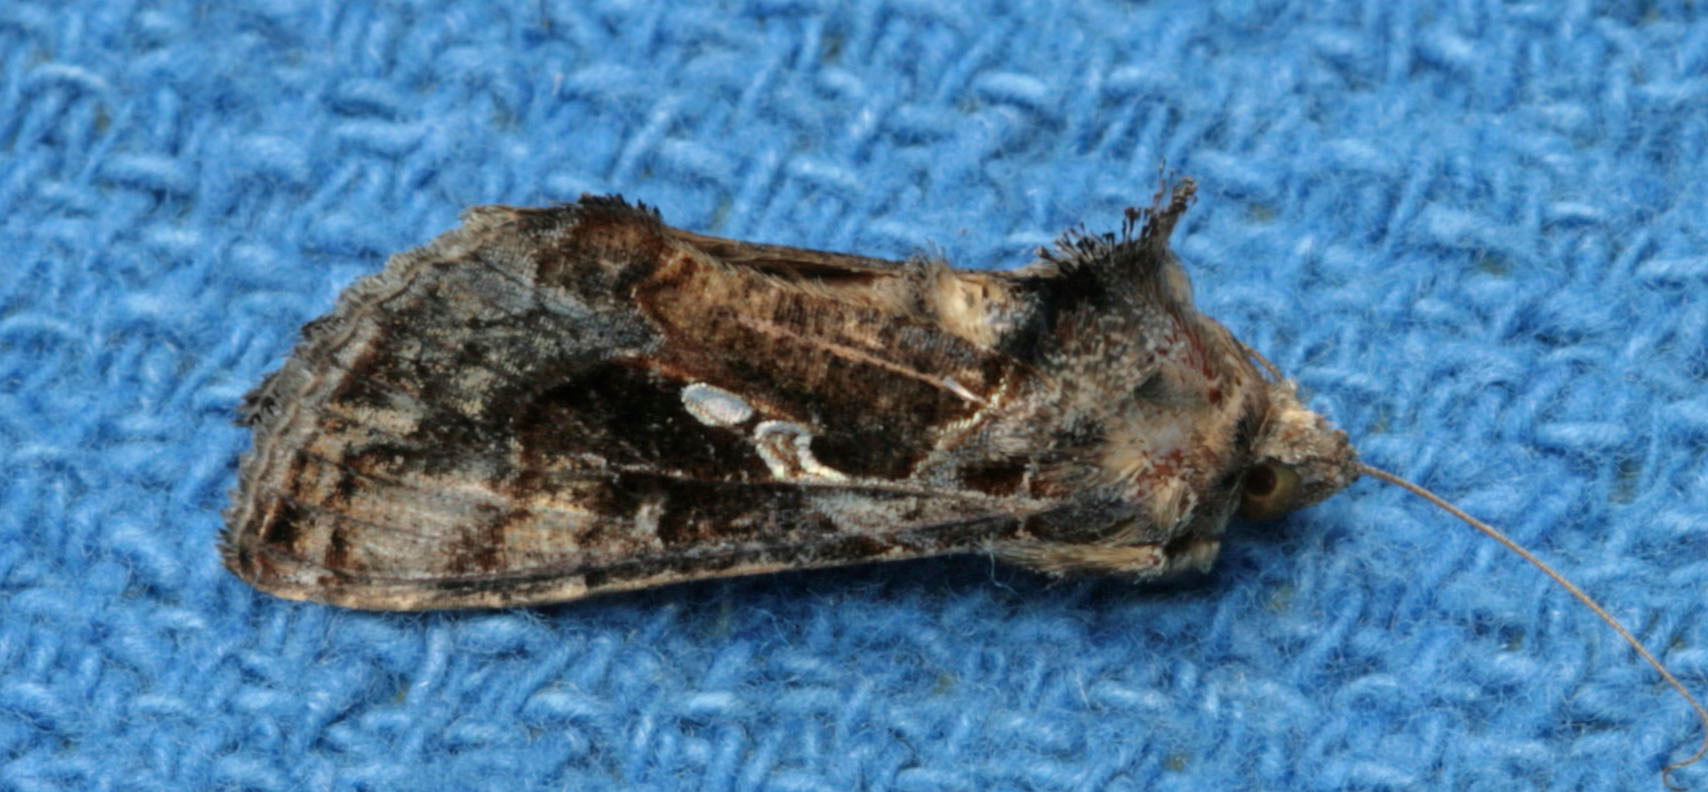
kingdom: Animalia
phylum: Arthropoda
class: Insecta
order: Lepidoptera
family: Noctuidae
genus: Chrysodeixis
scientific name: Chrysodeixis includens
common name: Cutworm moth
